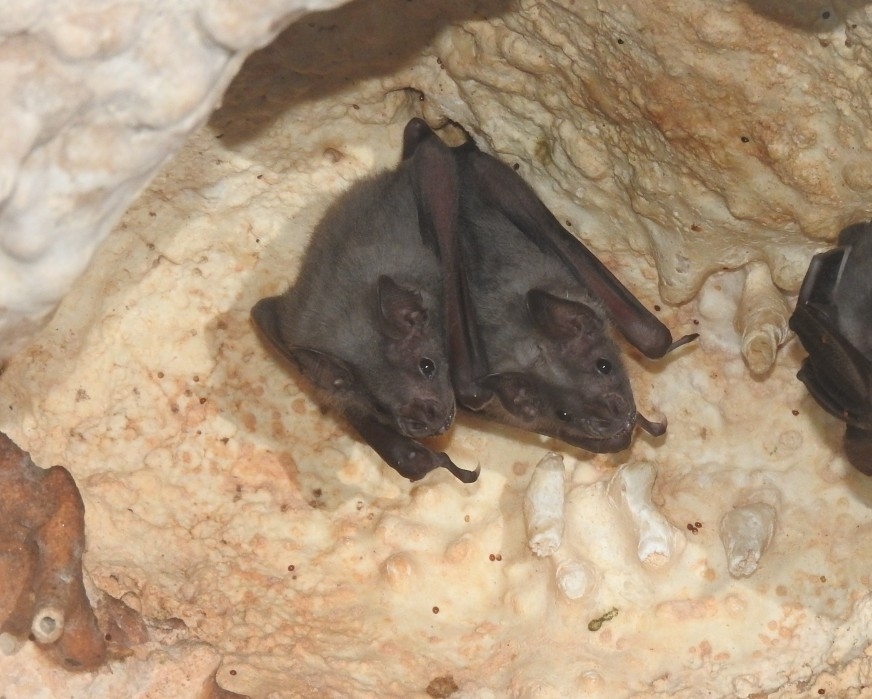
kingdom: Animalia
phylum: Chordata
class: Mammalia
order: Chiroptera
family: Phyllostomidae
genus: Artibeus
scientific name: Artibeus jamaicensis
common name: Jamaican fruit-eating bat
